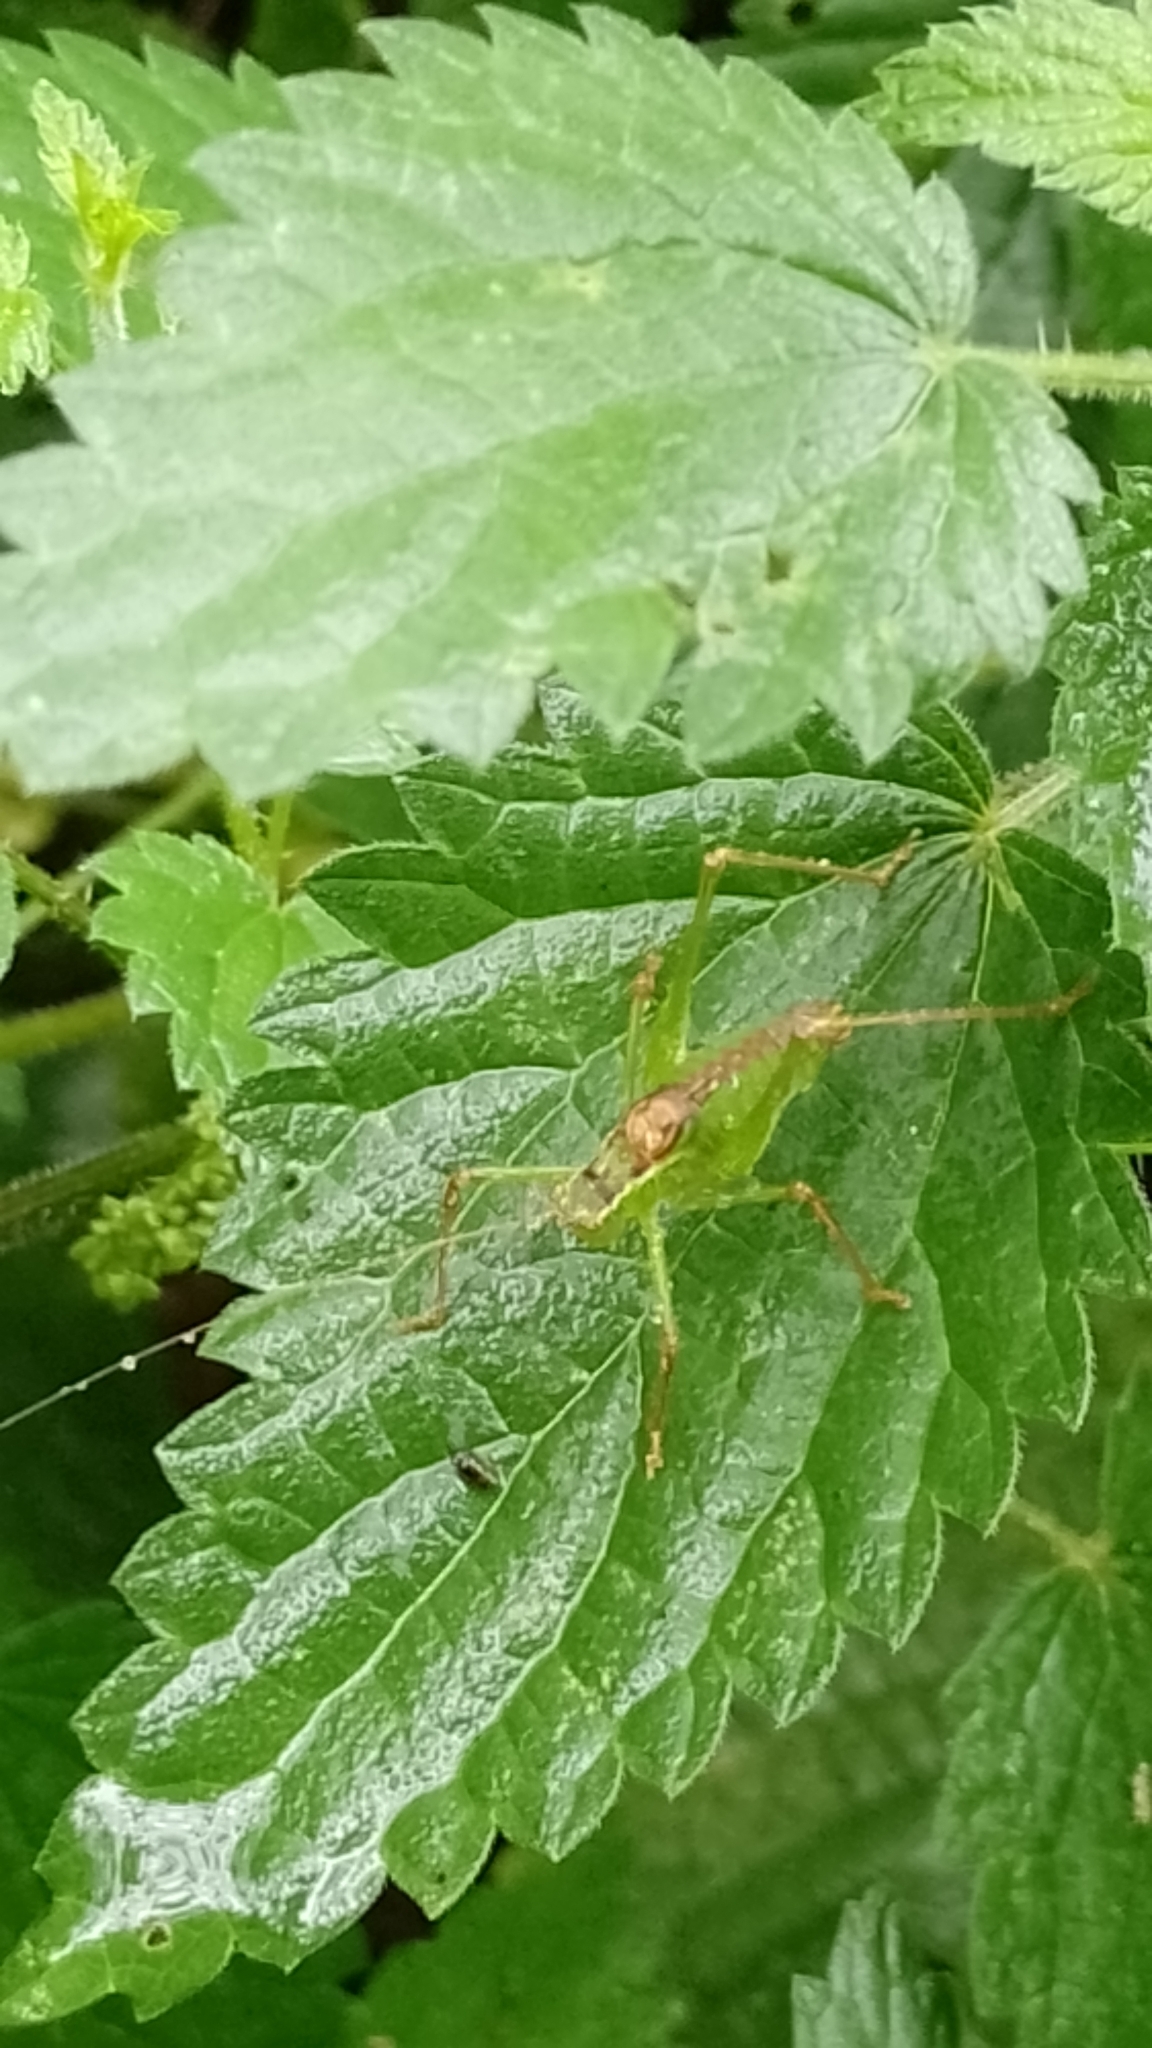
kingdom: Animalia
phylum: Arthropoda
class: Insecta
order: Orthoptera
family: Tettigoniidae
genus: Leptophyes
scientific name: Leptophyes punctatissima
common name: Speckled bush-cricket
